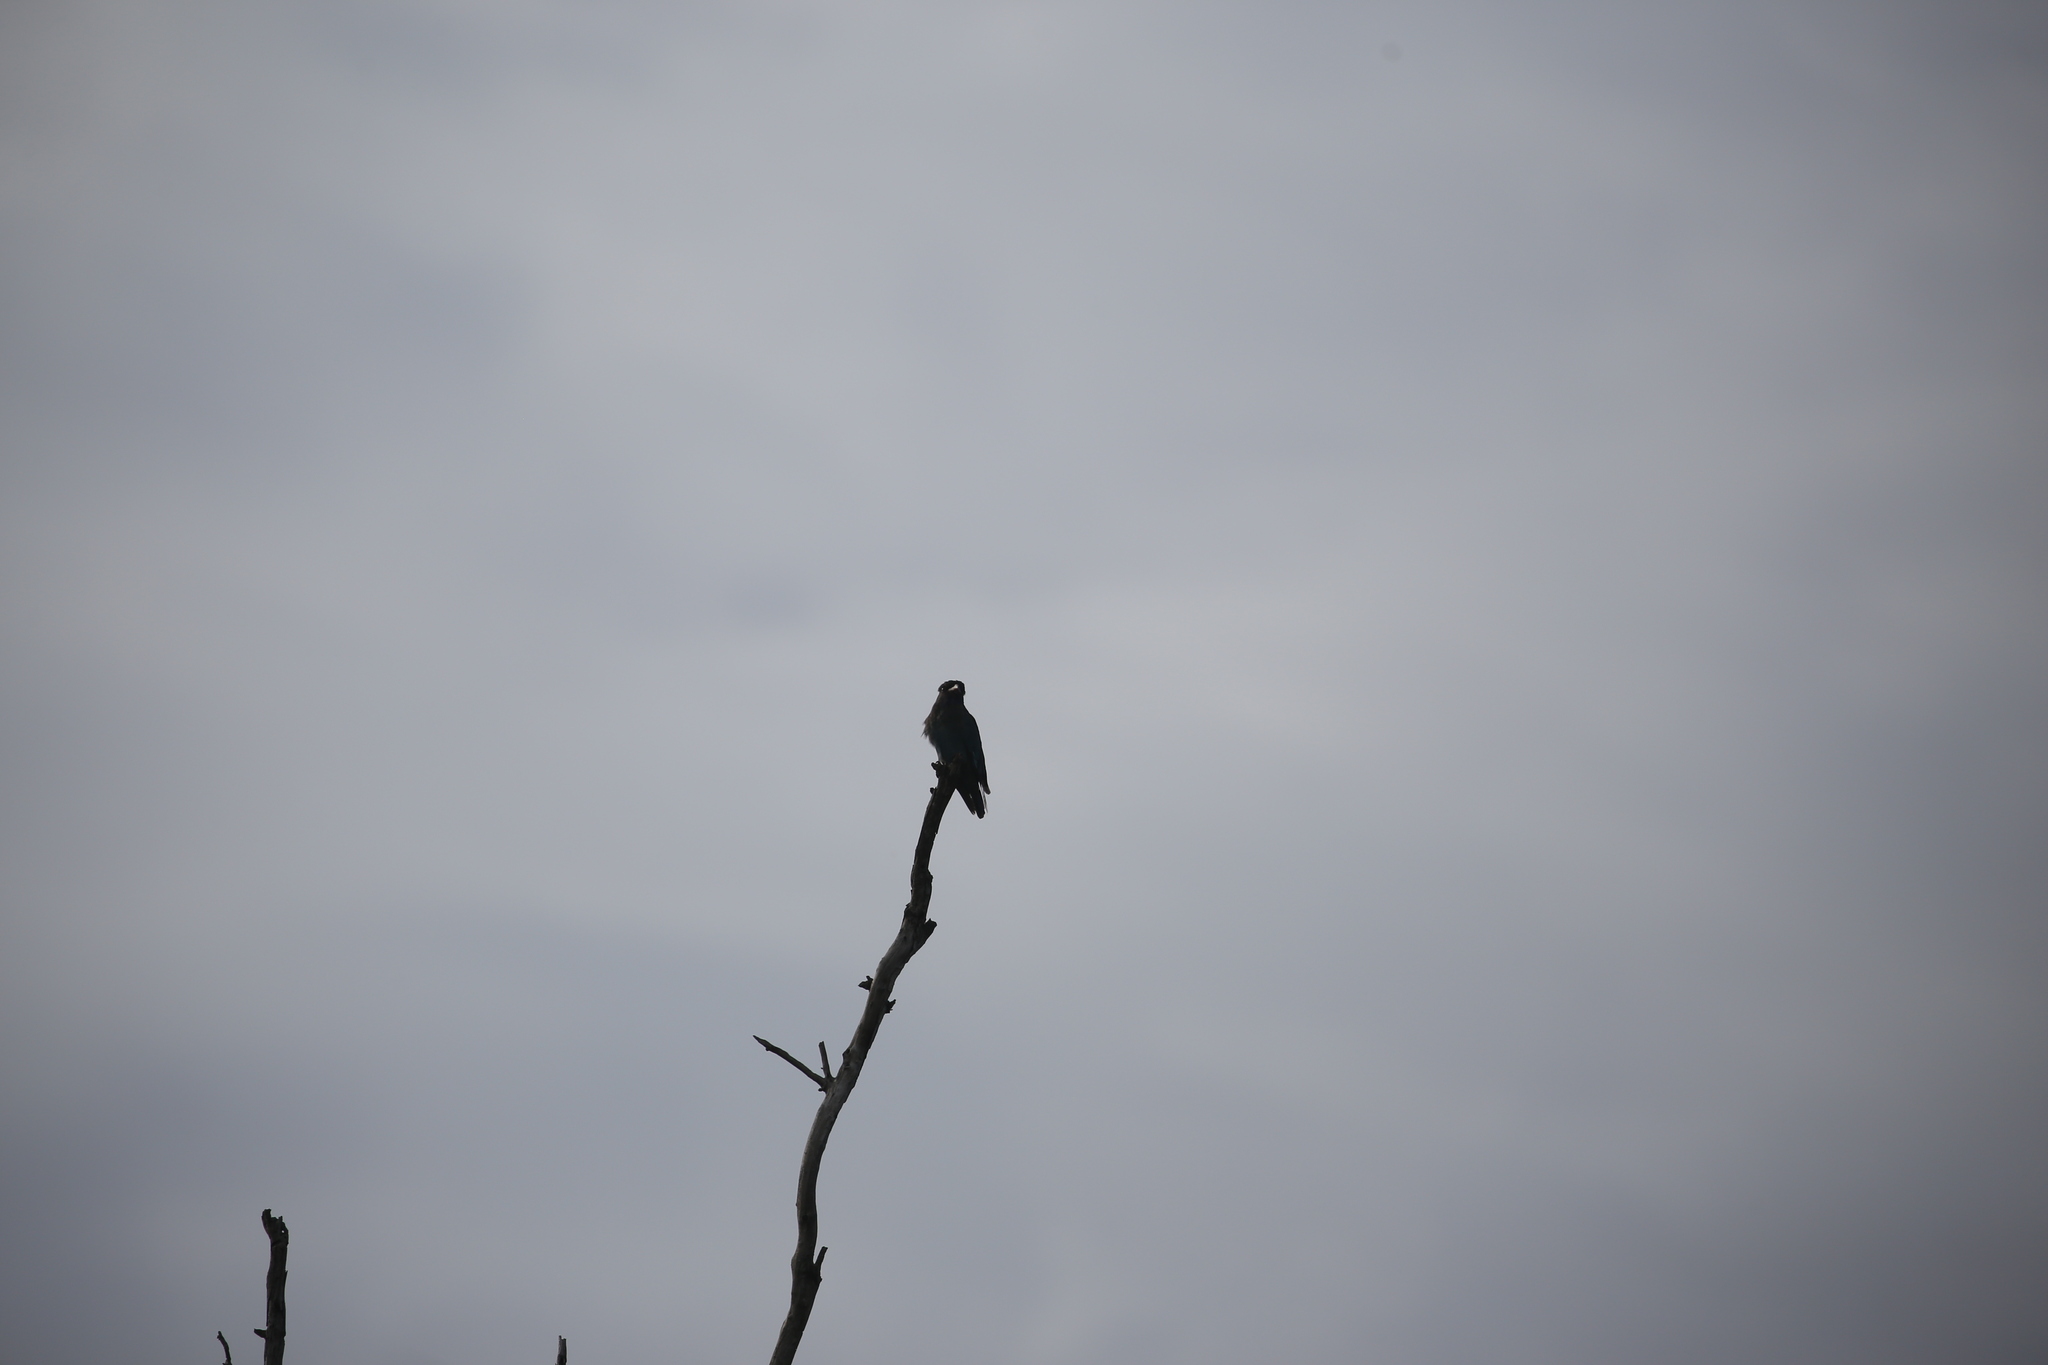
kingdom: Animalia
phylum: Chordata
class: Aves
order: Coraciiformes
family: Coraciidae
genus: Eurystomus
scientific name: Eurystomus orientalis
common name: Oriental dollarbird
